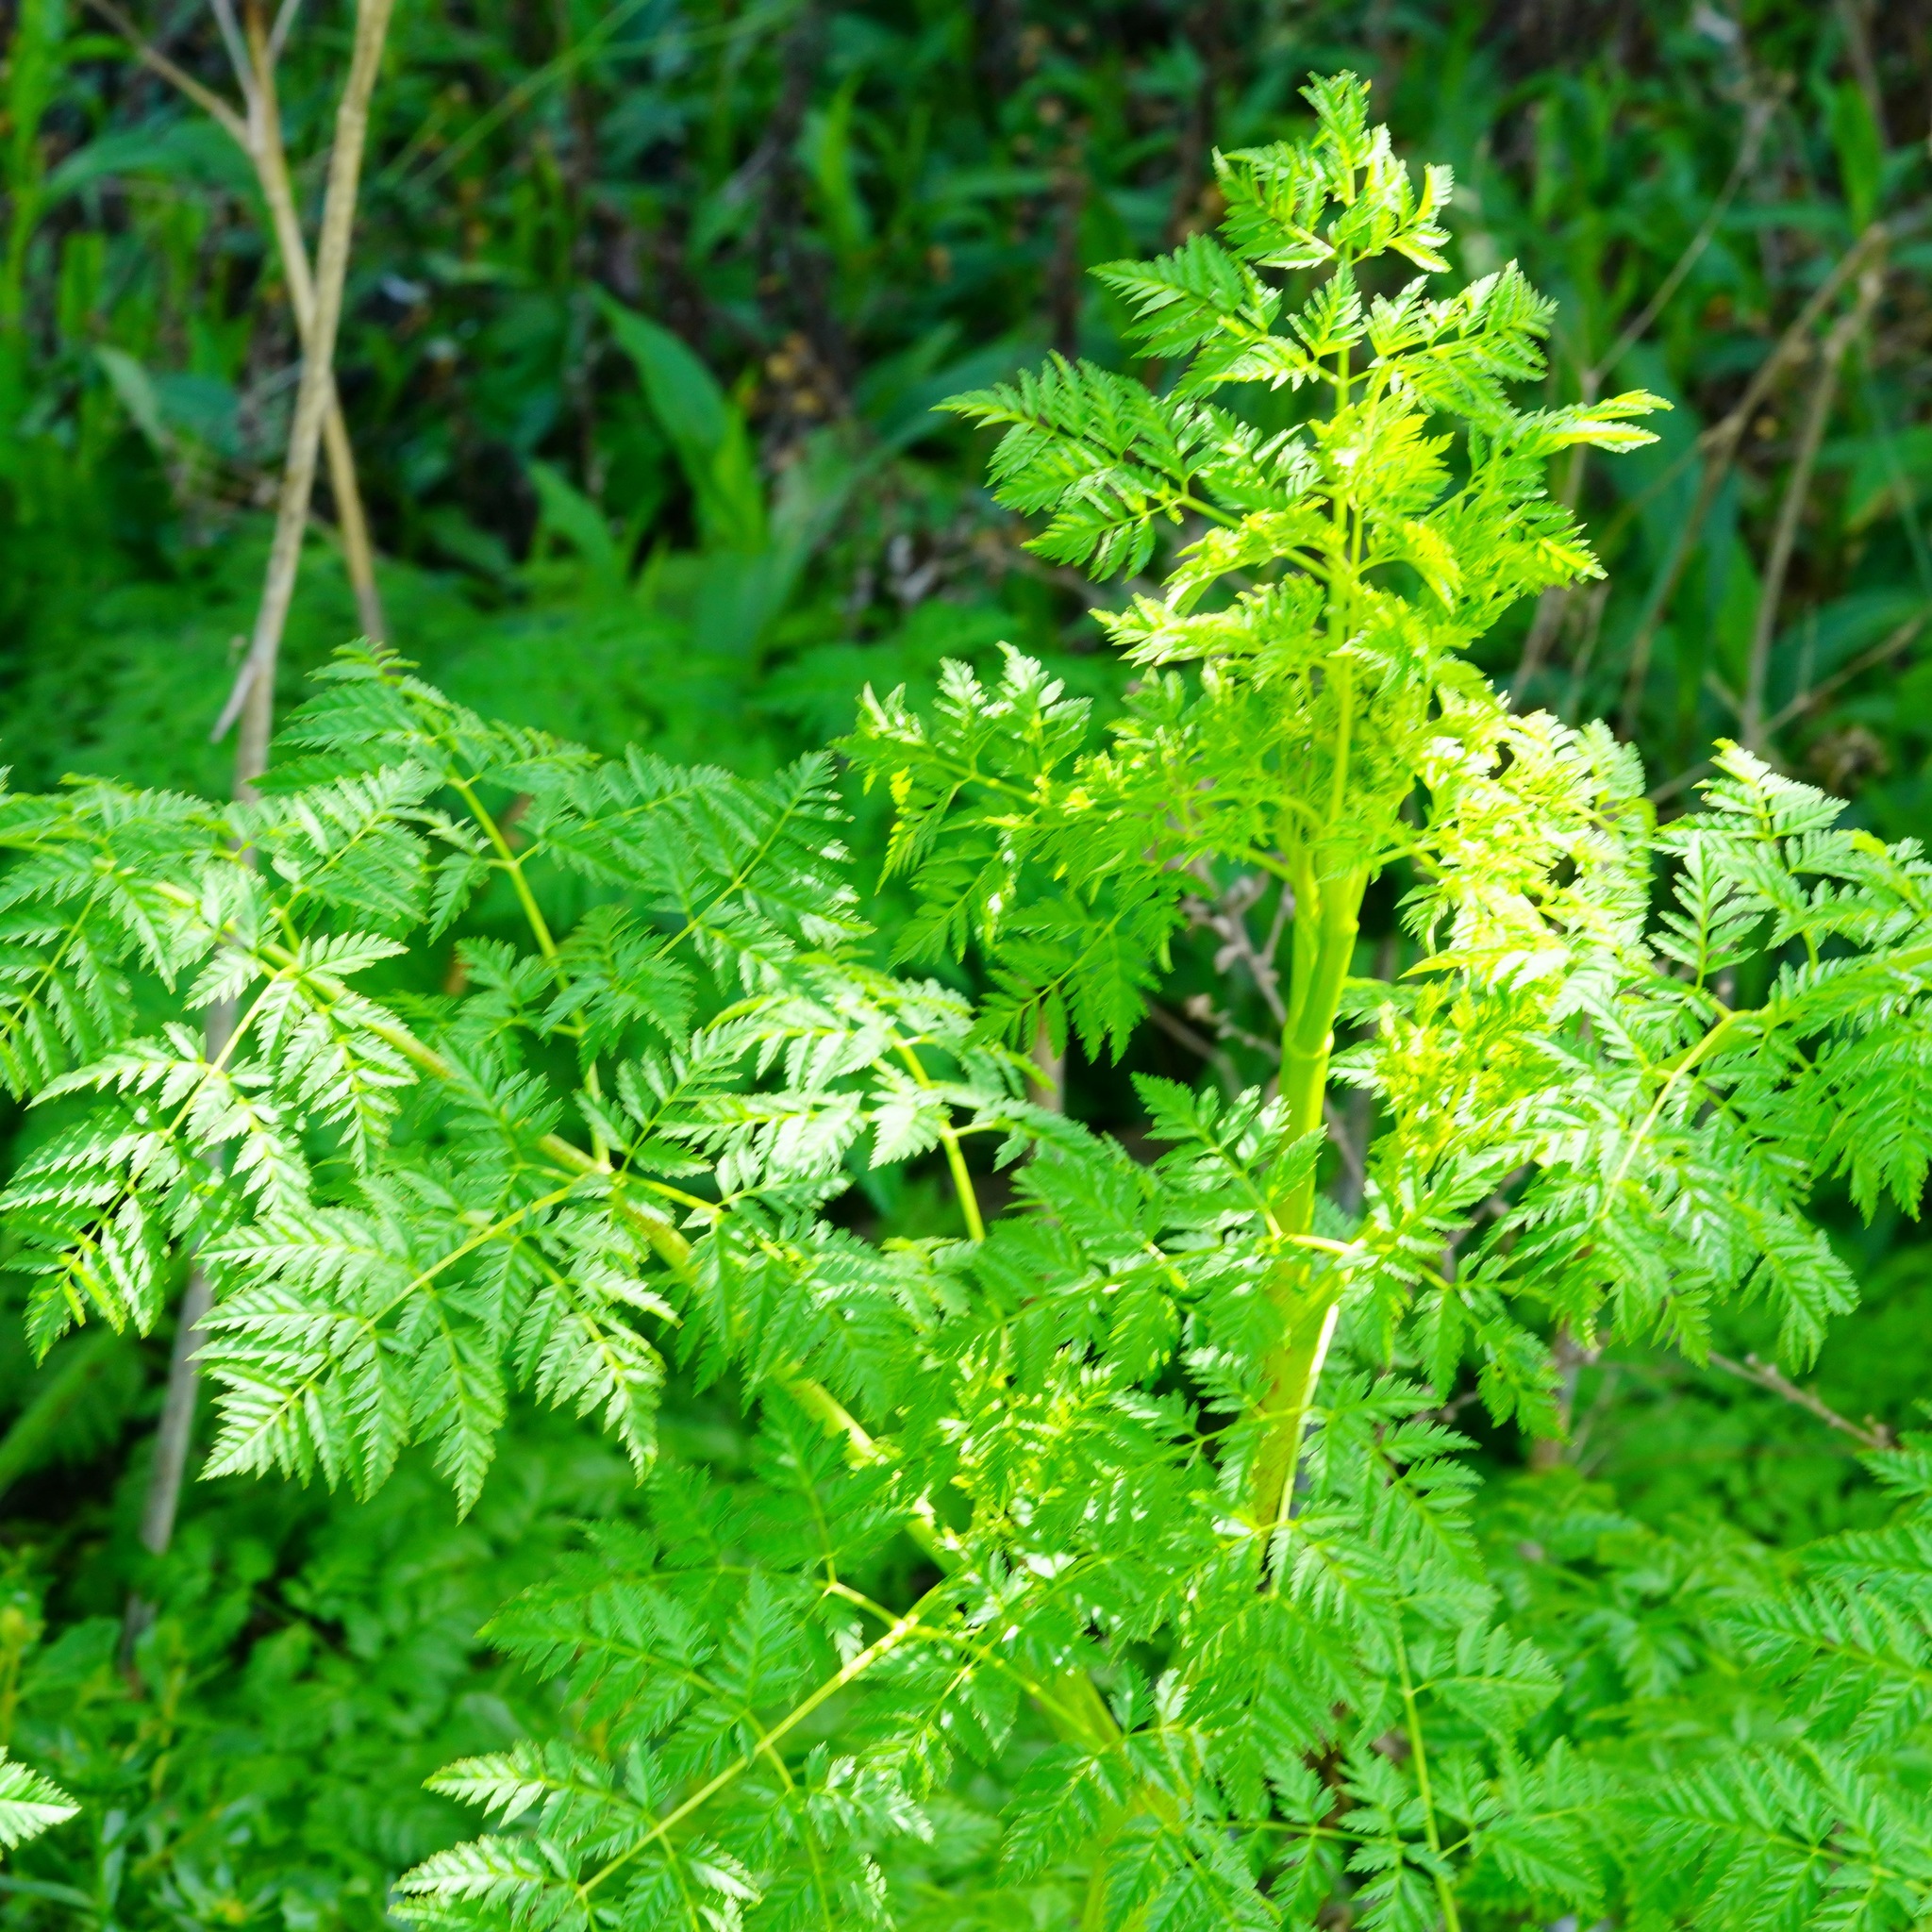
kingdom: Plantae
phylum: Tracheophyta
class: Magnoliopsida
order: Apiales
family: Apiaceae
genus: Conium
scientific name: Conium maculatum
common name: Hemlock
